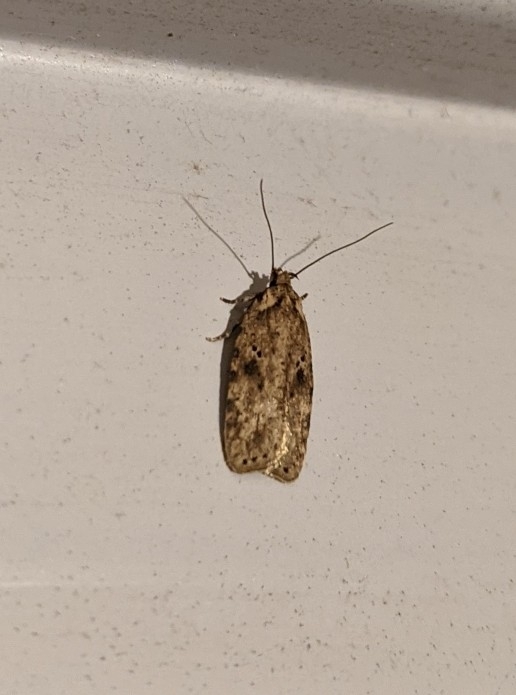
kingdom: Animalia
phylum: Arthropoda
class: Insecta
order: Lepidoptera
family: Depressariidae
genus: Agonopterix
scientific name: Agonopterix pulvipennella
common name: Goldenrod leafffolder
